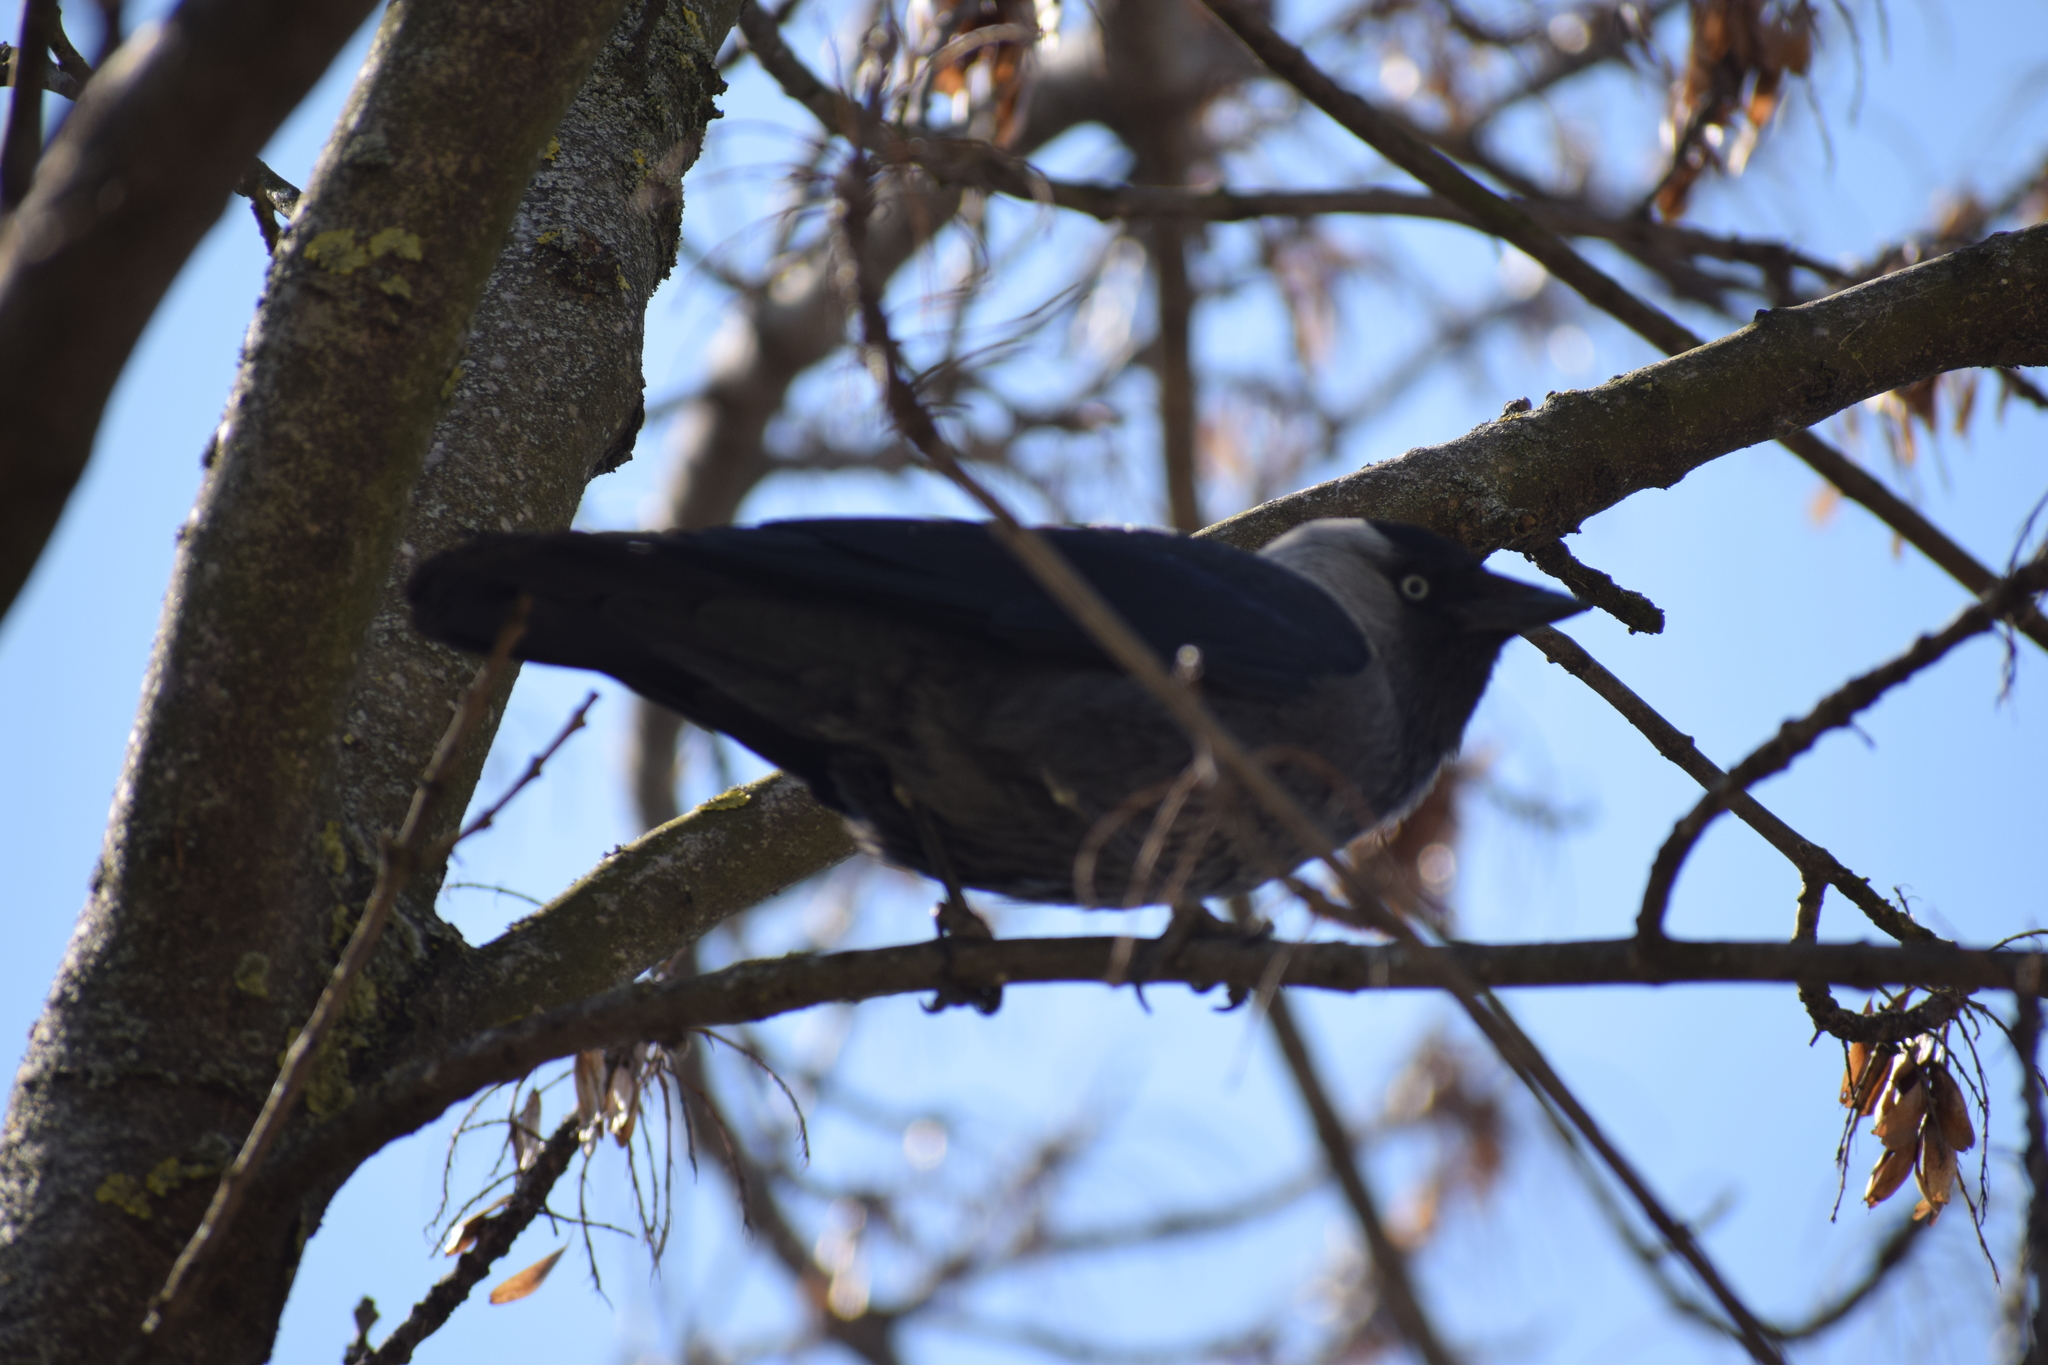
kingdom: Animalia
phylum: Chordata
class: Aves
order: Passeriformes
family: Corvidae
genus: Coloeus
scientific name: Coloeus monedula
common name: Western jackdaw
